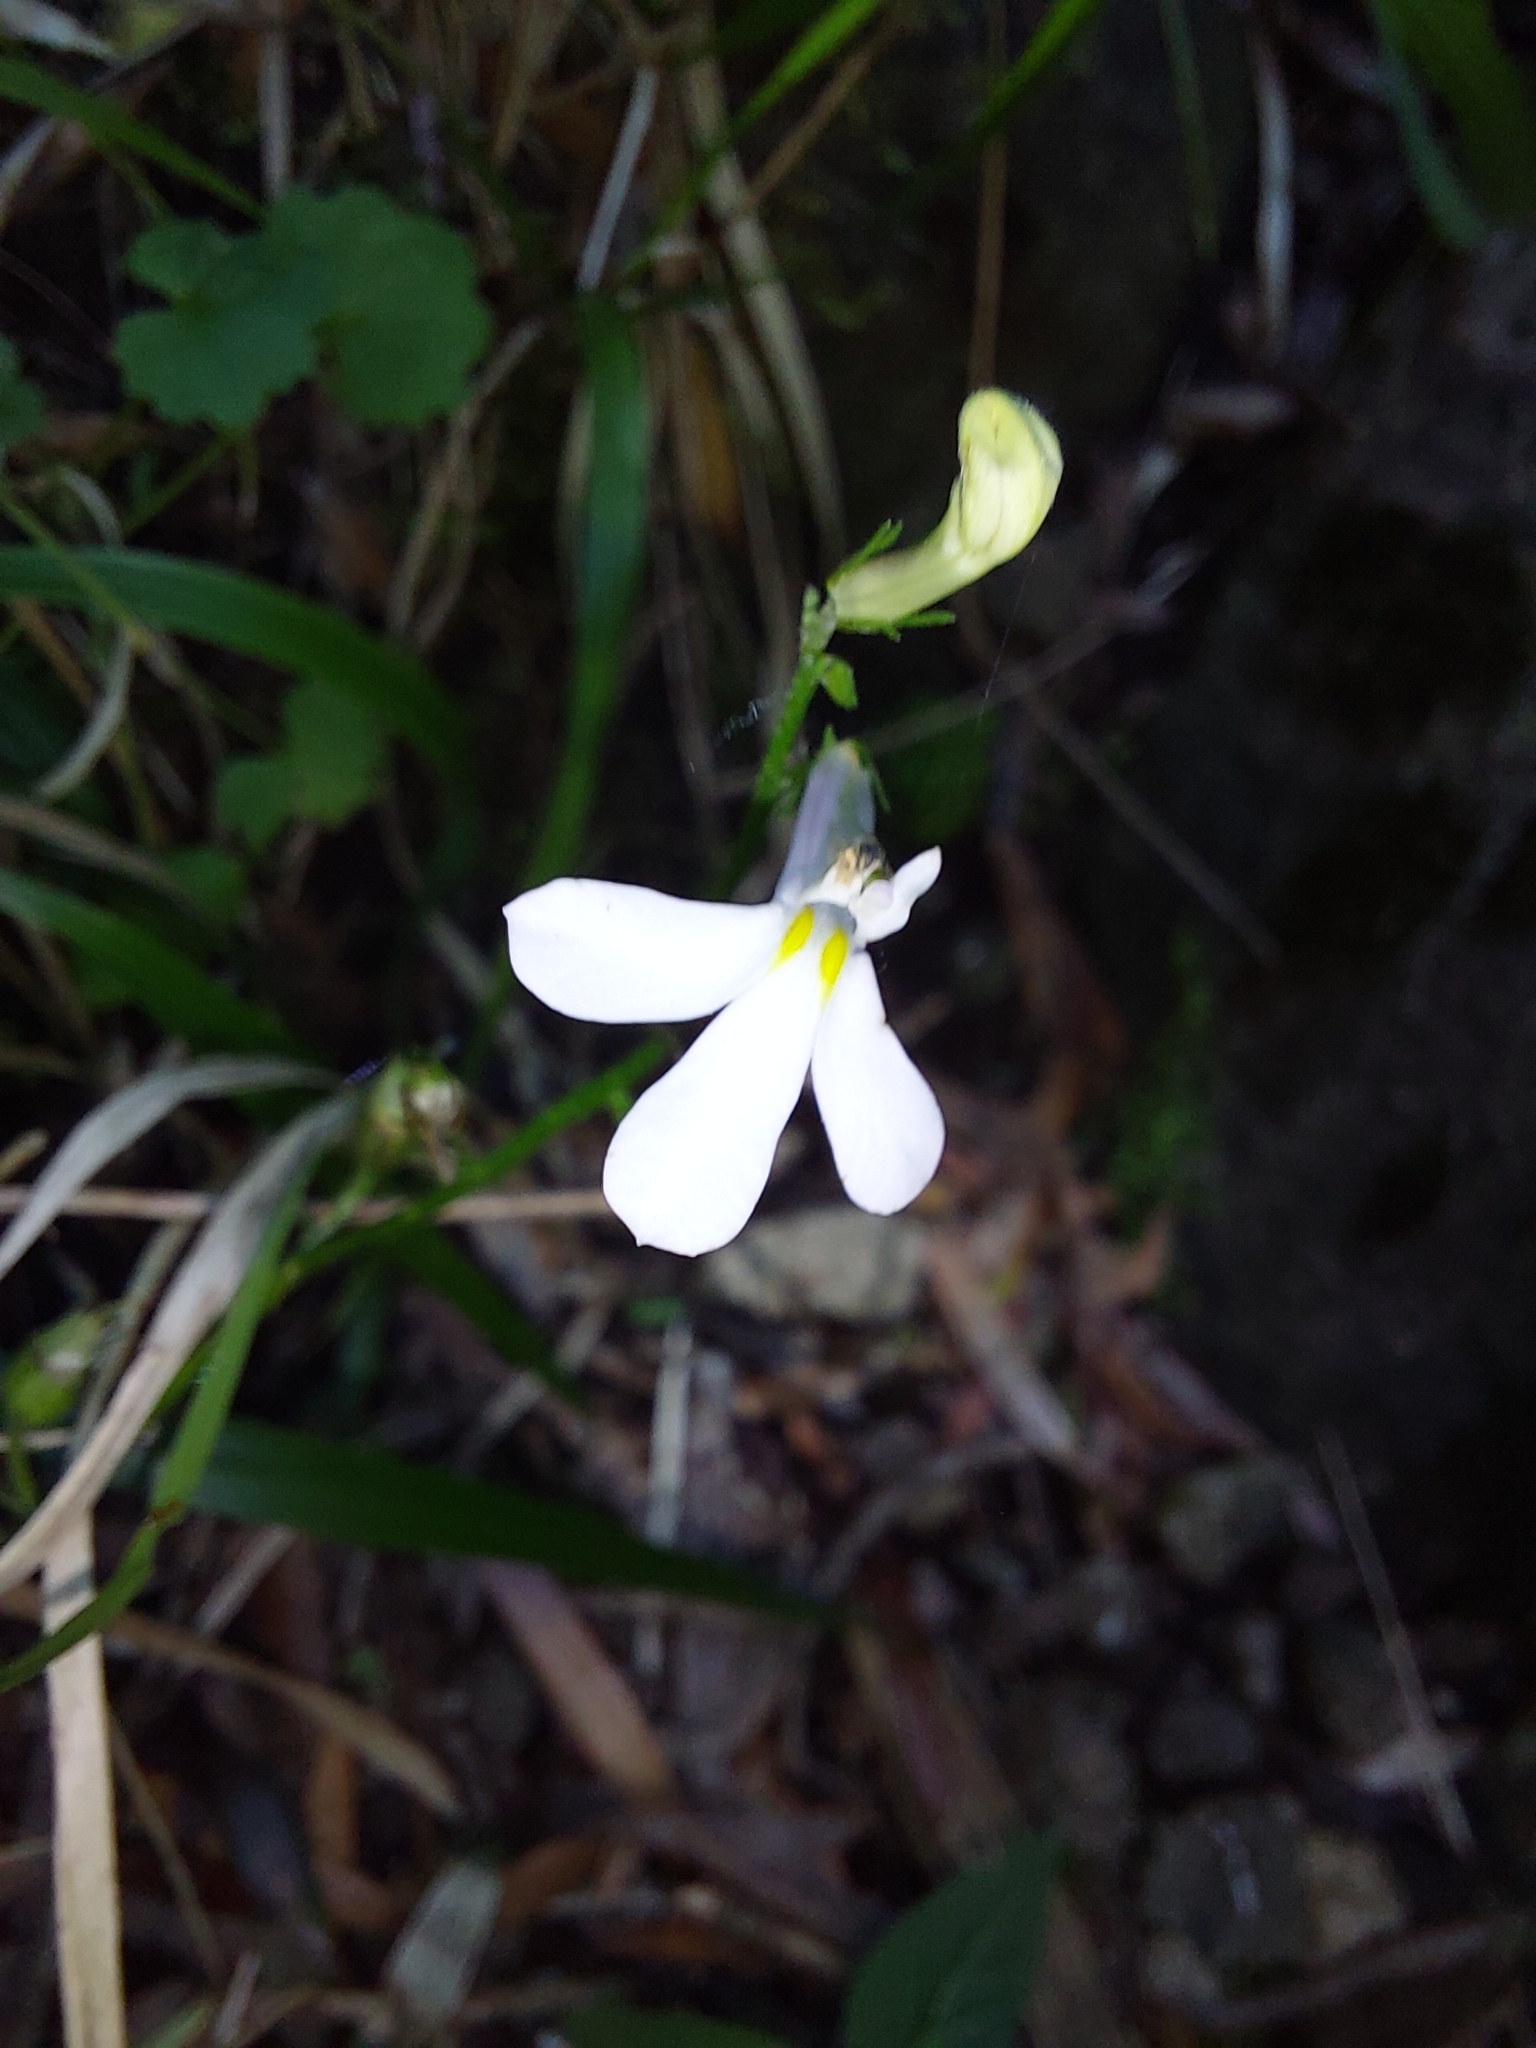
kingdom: Plantae
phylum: Tracheophyta
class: Magnoliopsida
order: Asterales
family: Campanulaceae
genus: Lobelia
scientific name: Lobelia vanreenensis
